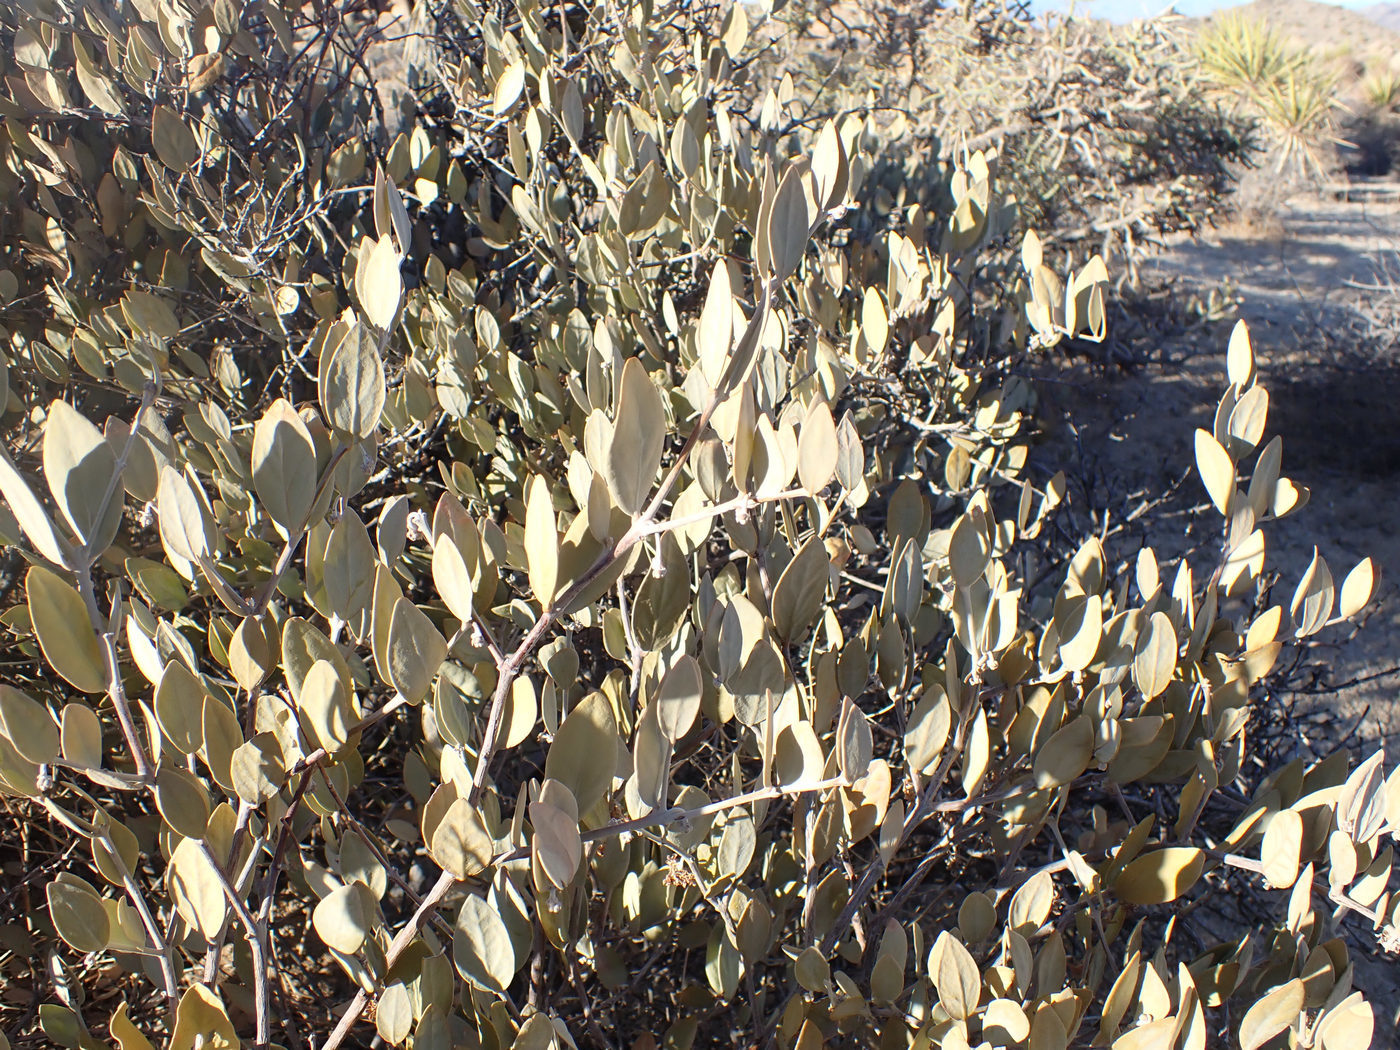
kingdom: Plantae
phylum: Tracheophyta
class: Magnoliopsida
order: Caryophyllales
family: Simmondsiaceae
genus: Simmondsia
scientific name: Simmondsia chinensis
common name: Jojoba
